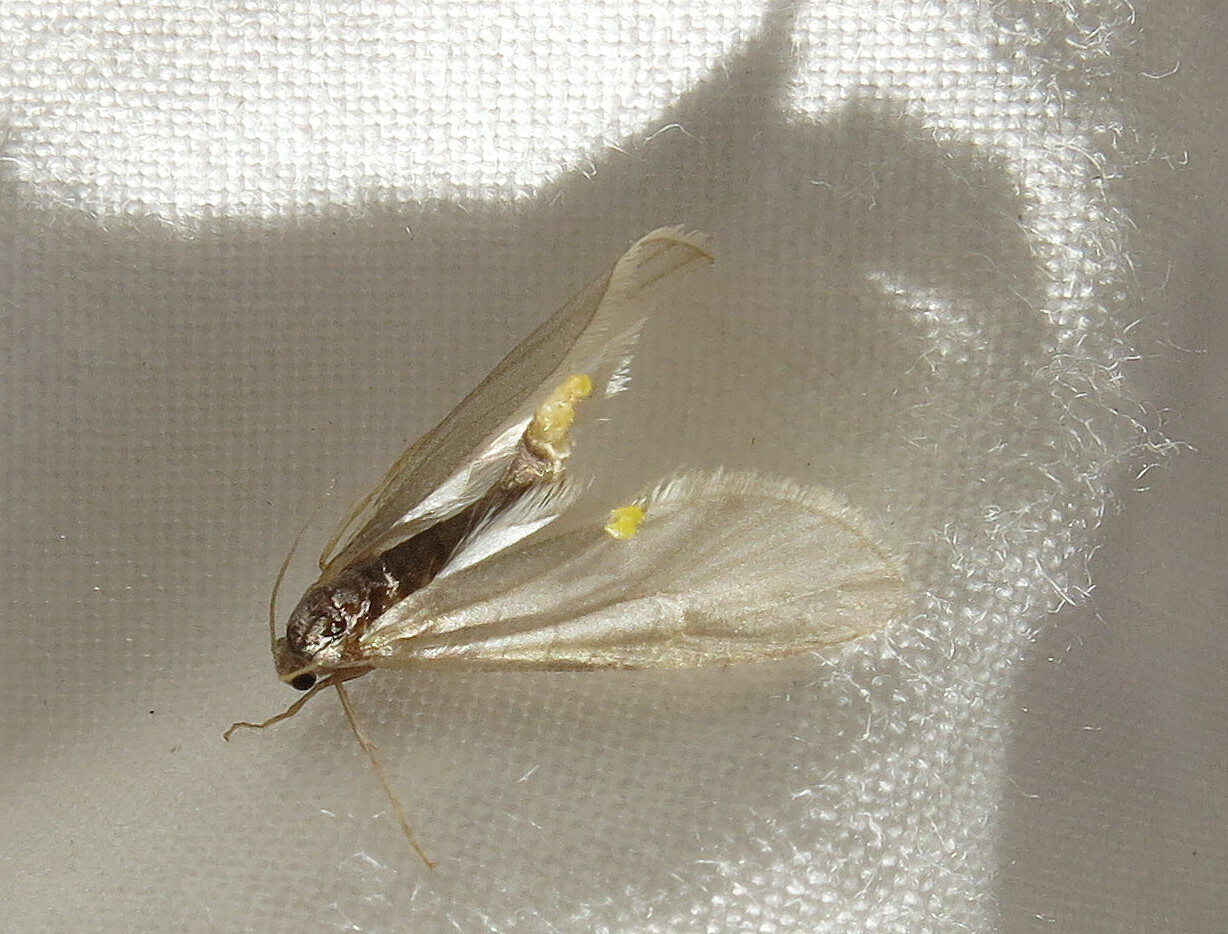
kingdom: Animalia
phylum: Arthropoda
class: Insecta
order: Lepidoptera
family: Crambidae
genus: Acentria
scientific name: Acentria ephemerella
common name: European water moth
